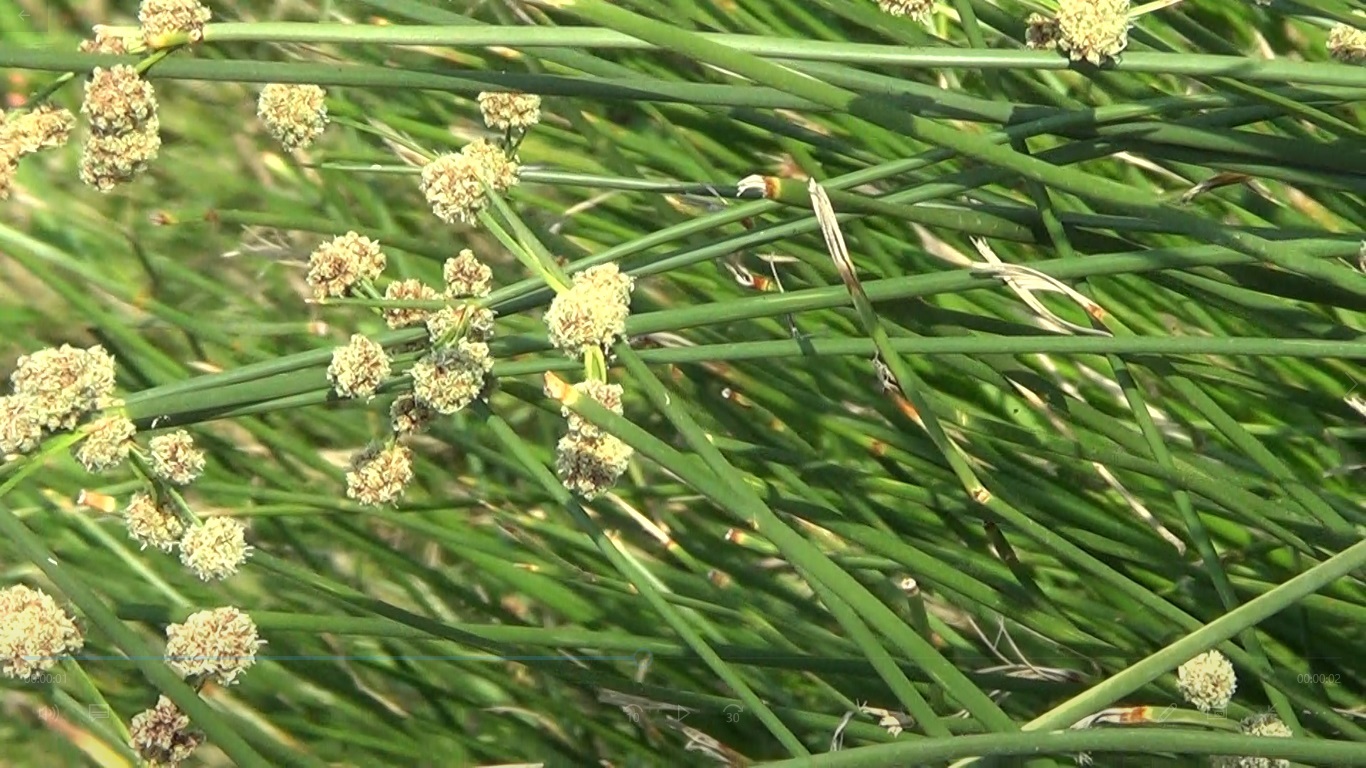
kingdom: Plantae
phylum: Tracheophyta
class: Liliopsida
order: Poales
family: Cyperaceae
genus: Scirpoides
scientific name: Scirpoides holoschoenus
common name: Round-headed club-rush
